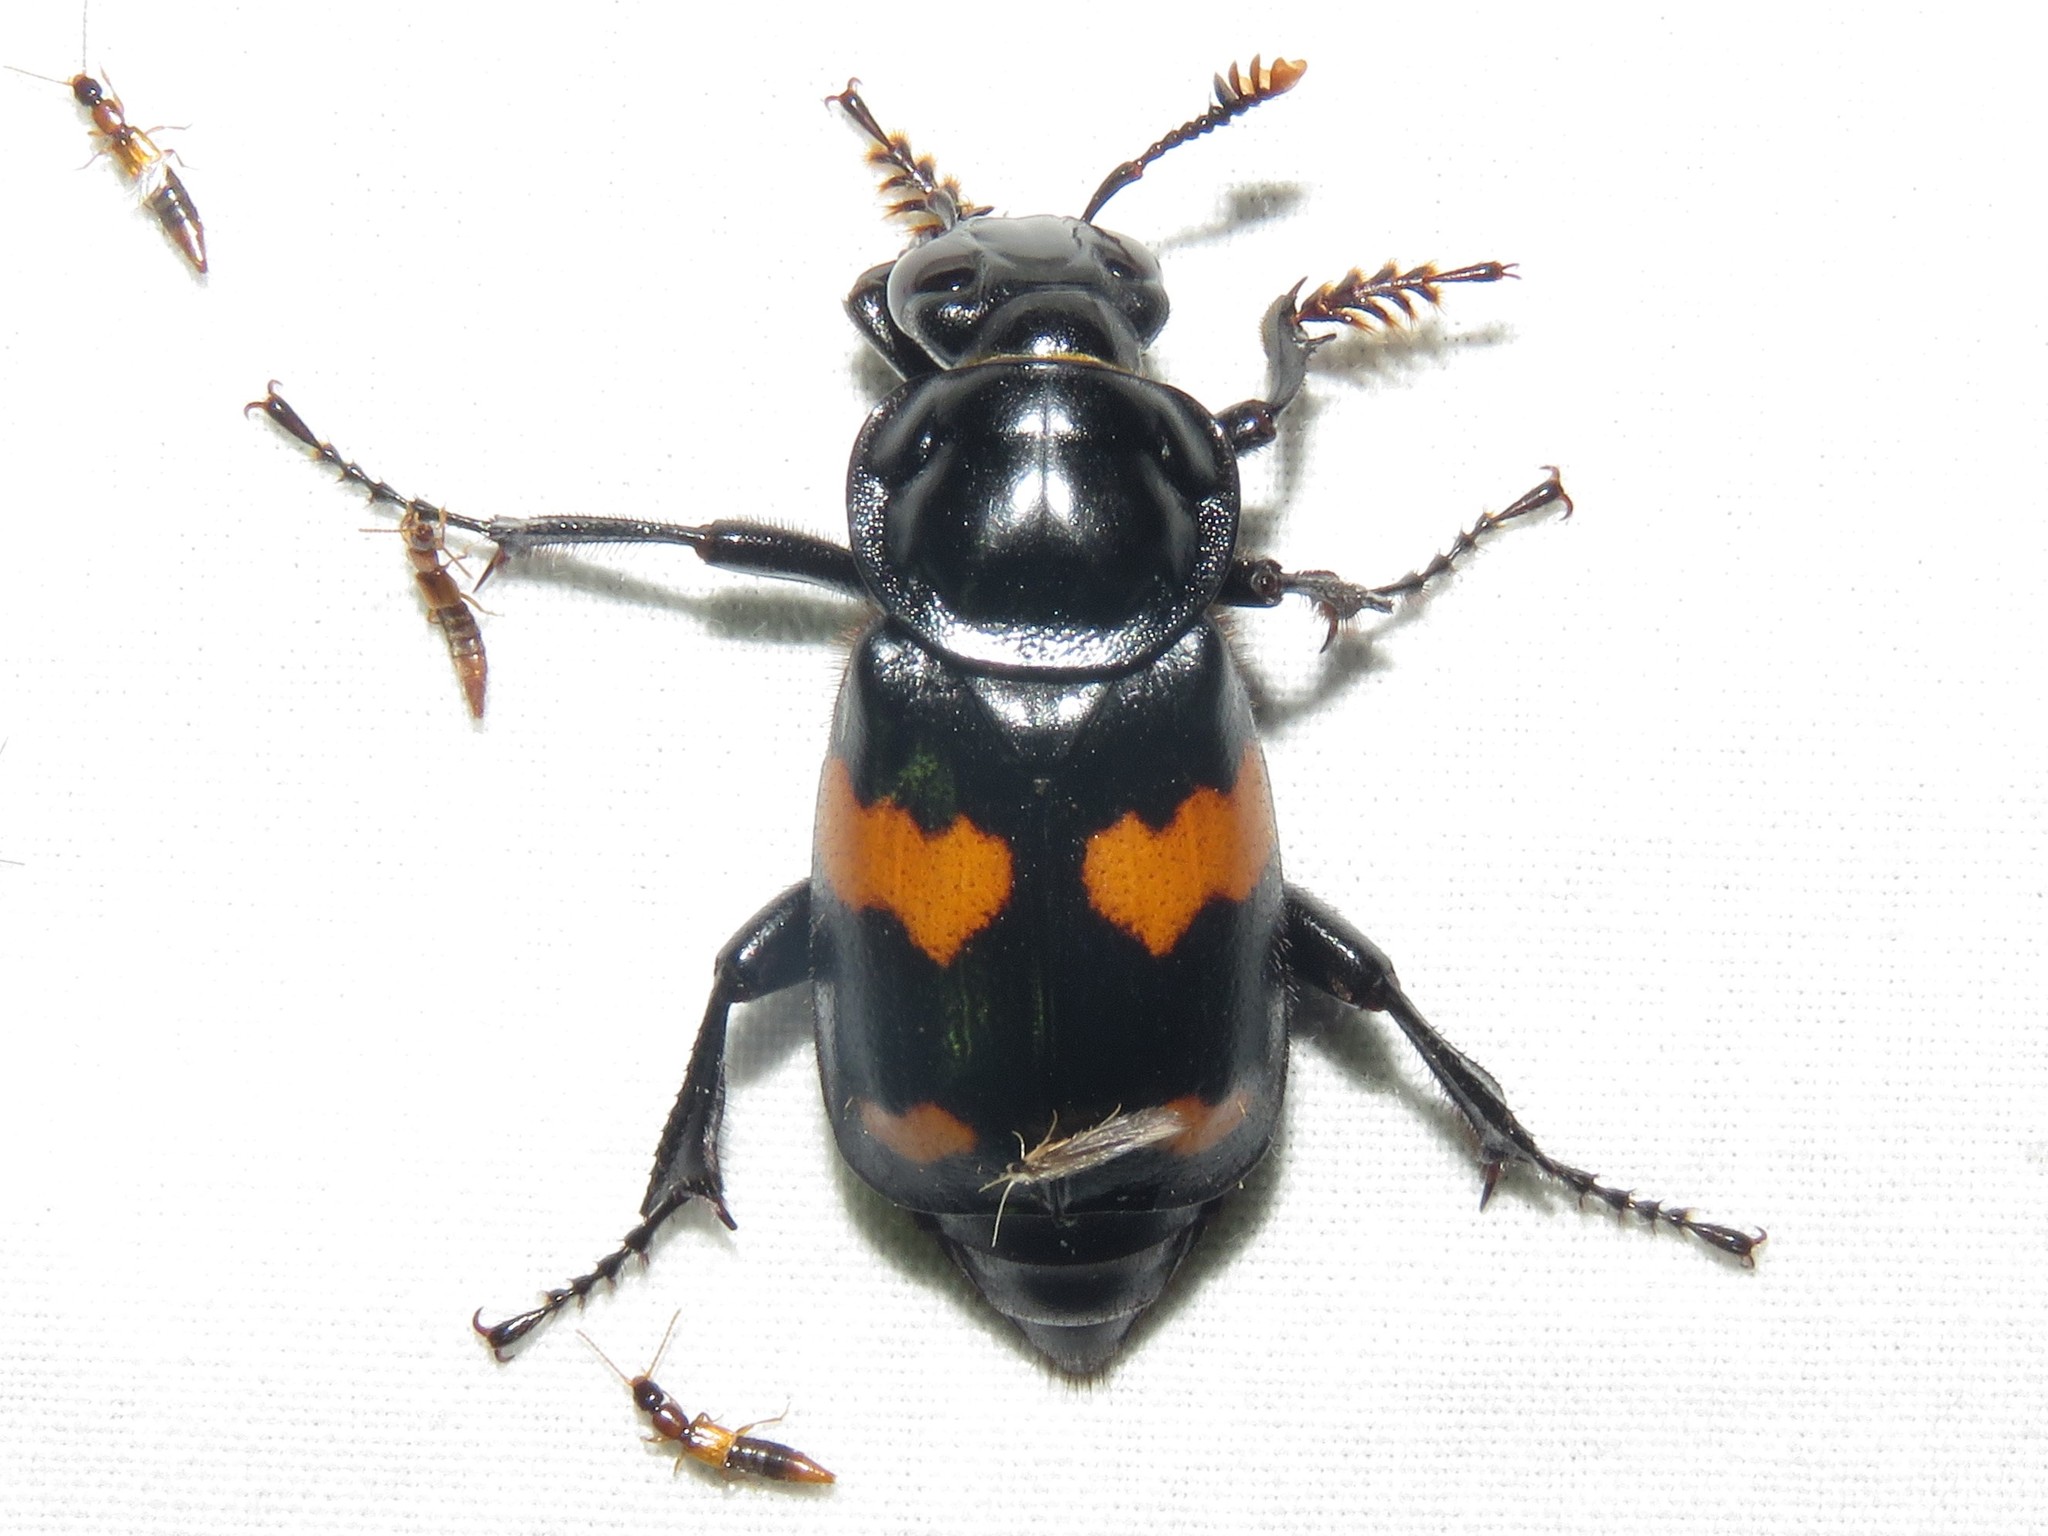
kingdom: Animalia
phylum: Arthropoda
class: Insecta
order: Coleoptera
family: Staphylinidae
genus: Nicrophorus
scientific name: Nicrophorus orbicollis
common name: Roundneck sexton beetle
